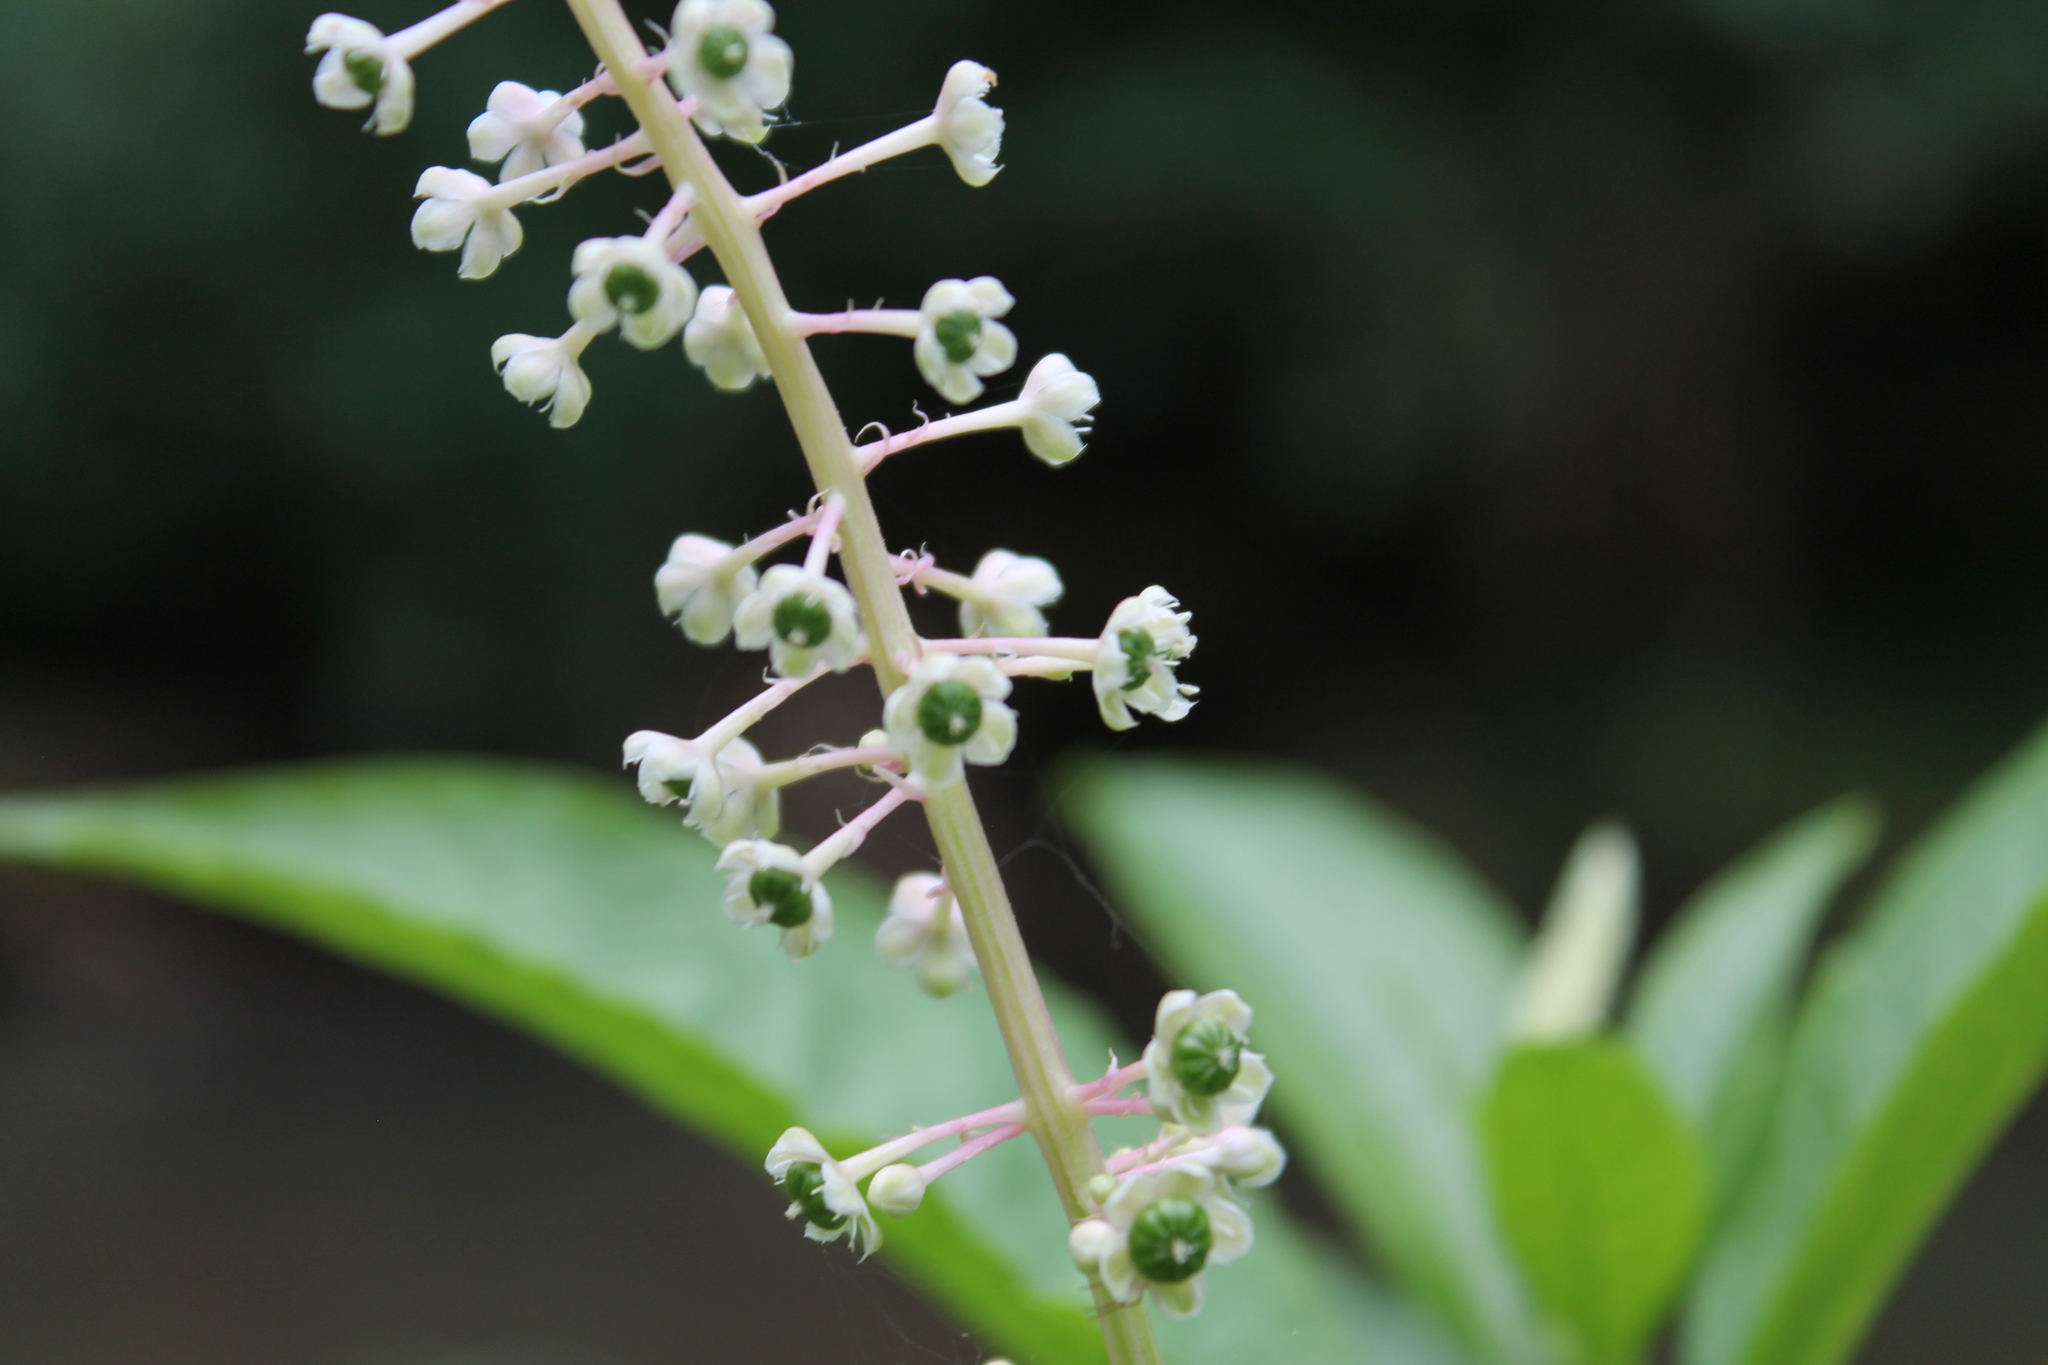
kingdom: Plantae
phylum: Tracheophyta
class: Magnoliopsida
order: Caryophyllales
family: Phytolaccaceae
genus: Phytolacca
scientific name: Phytolacca americana
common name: American pokeweed
